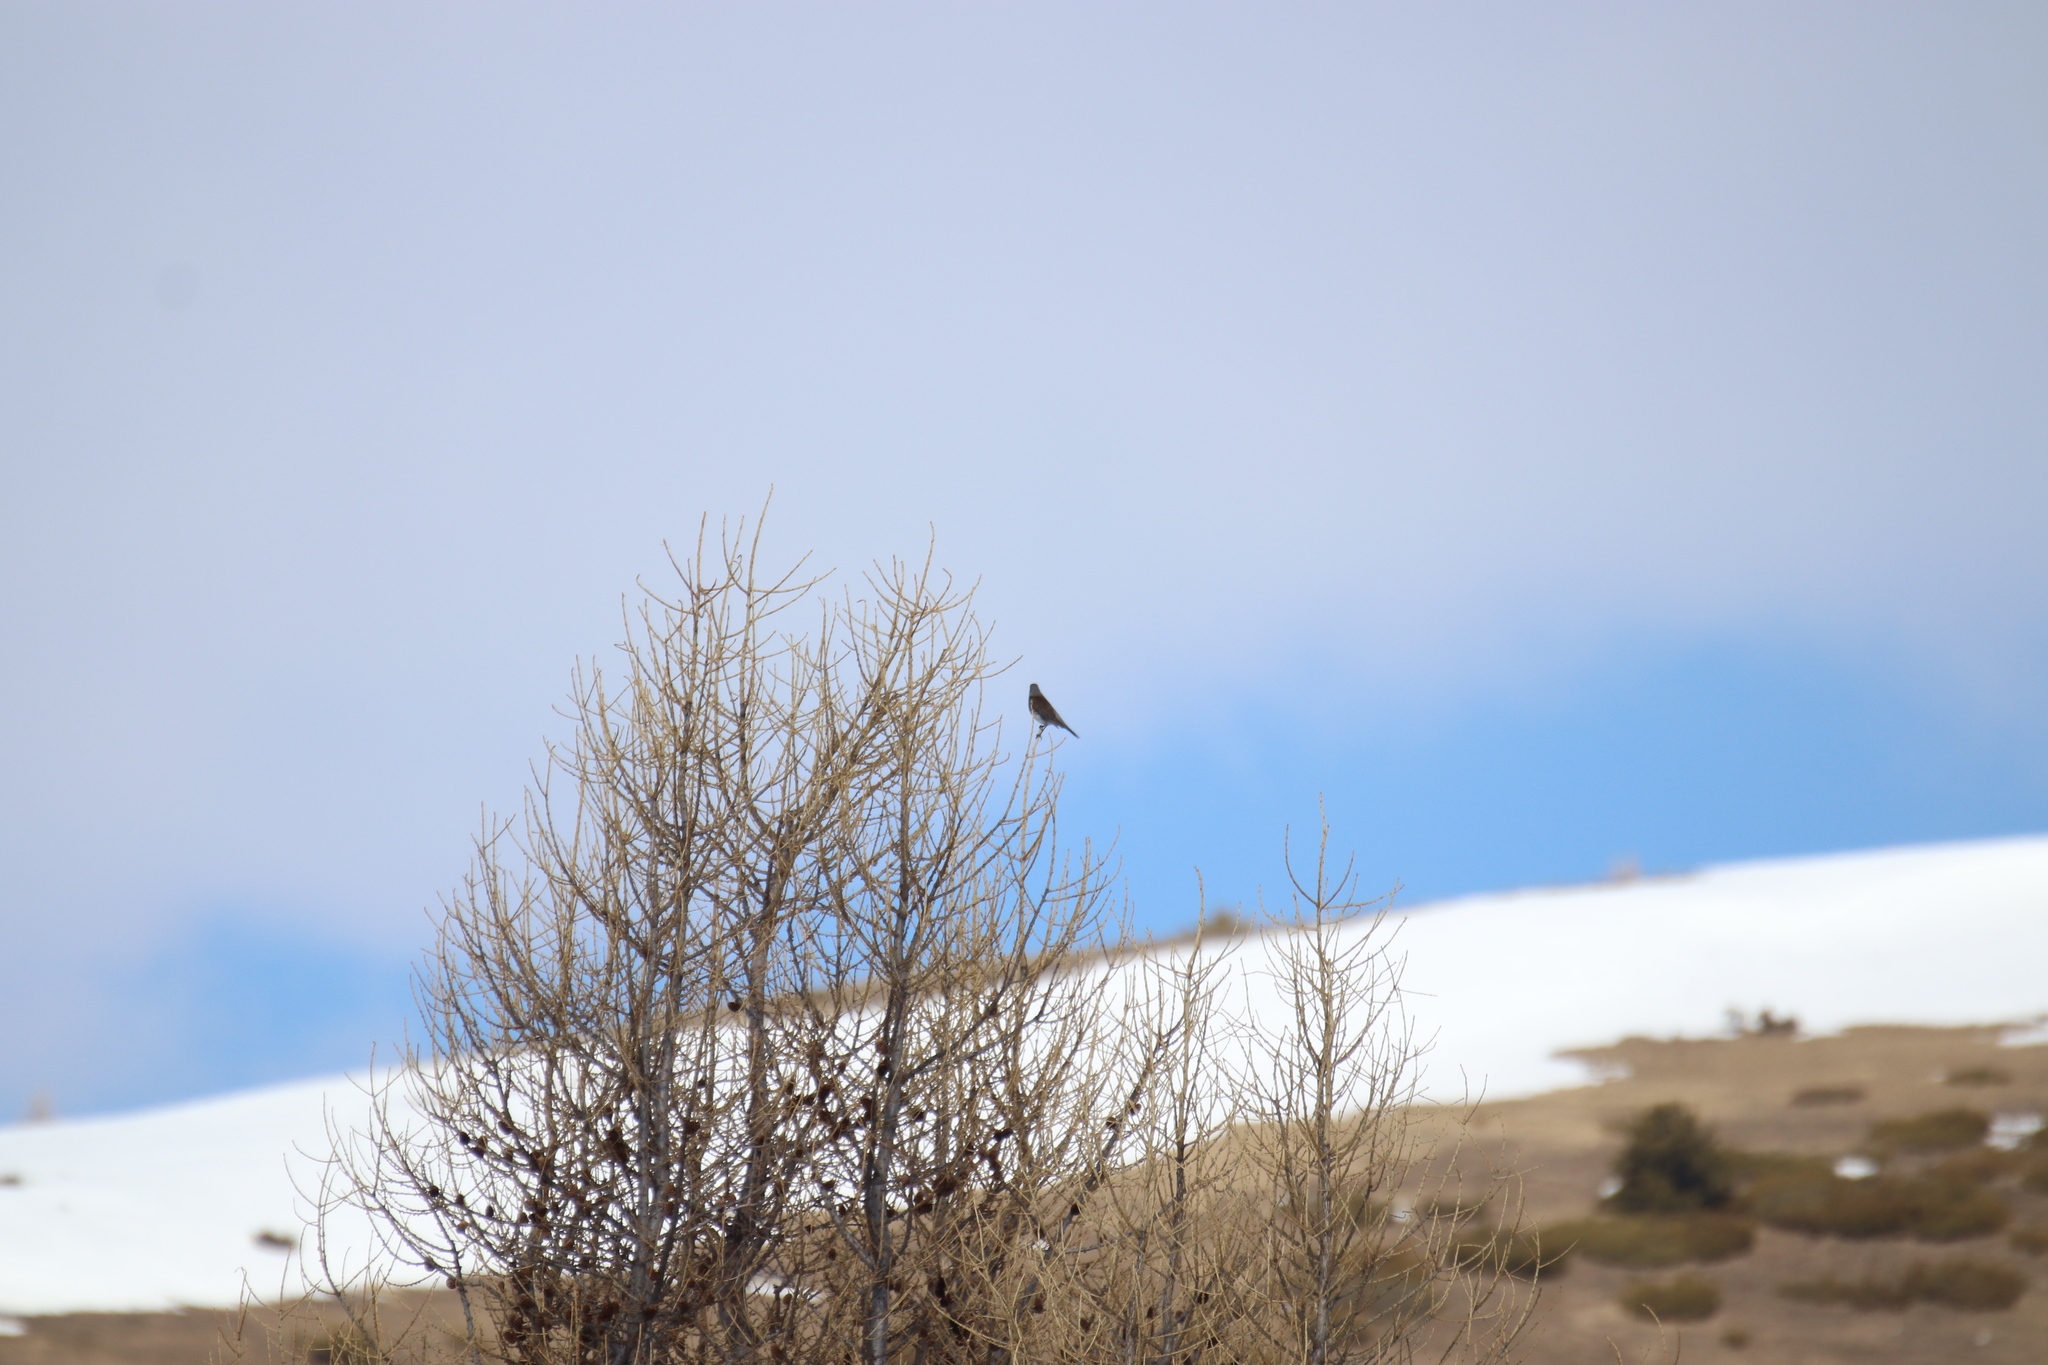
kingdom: Animalia
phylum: Chordata
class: Aves
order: Passeriformes
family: Turdidae
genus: Turdus
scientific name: Turdus pilaris
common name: Fieldfare
